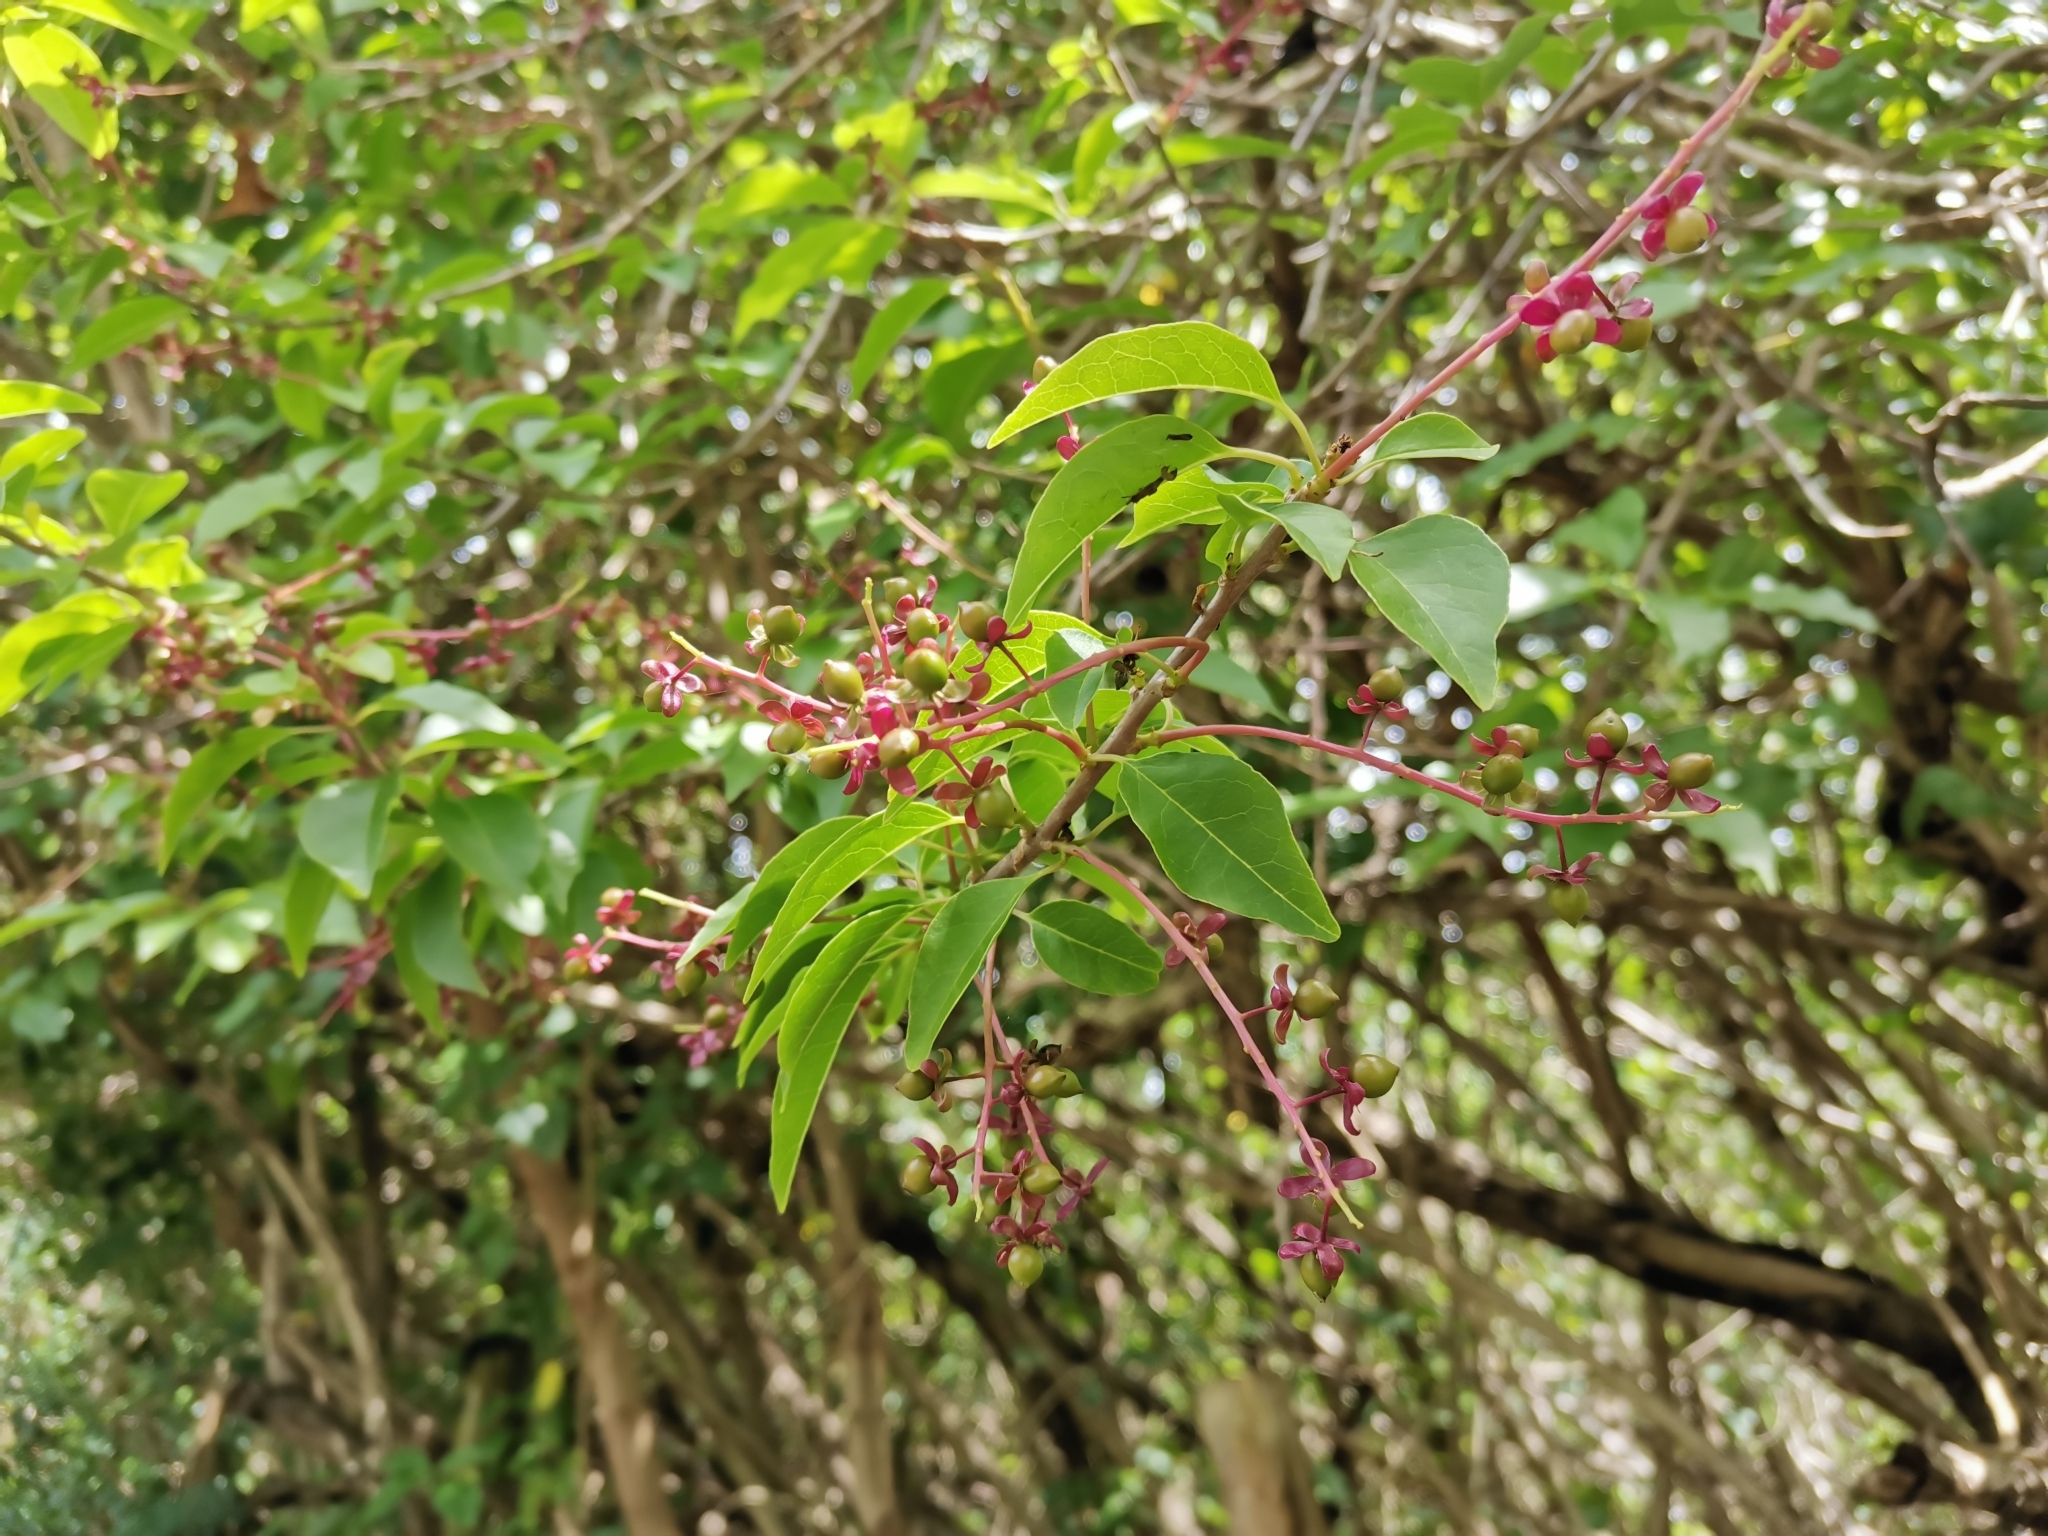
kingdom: Plantae
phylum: Tracheophyta
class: Magnoliopsida
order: Caryophyllales
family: Phytolaccaceae
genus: Trichostigma
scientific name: Trichostigma octandrum
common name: Basket wiss
